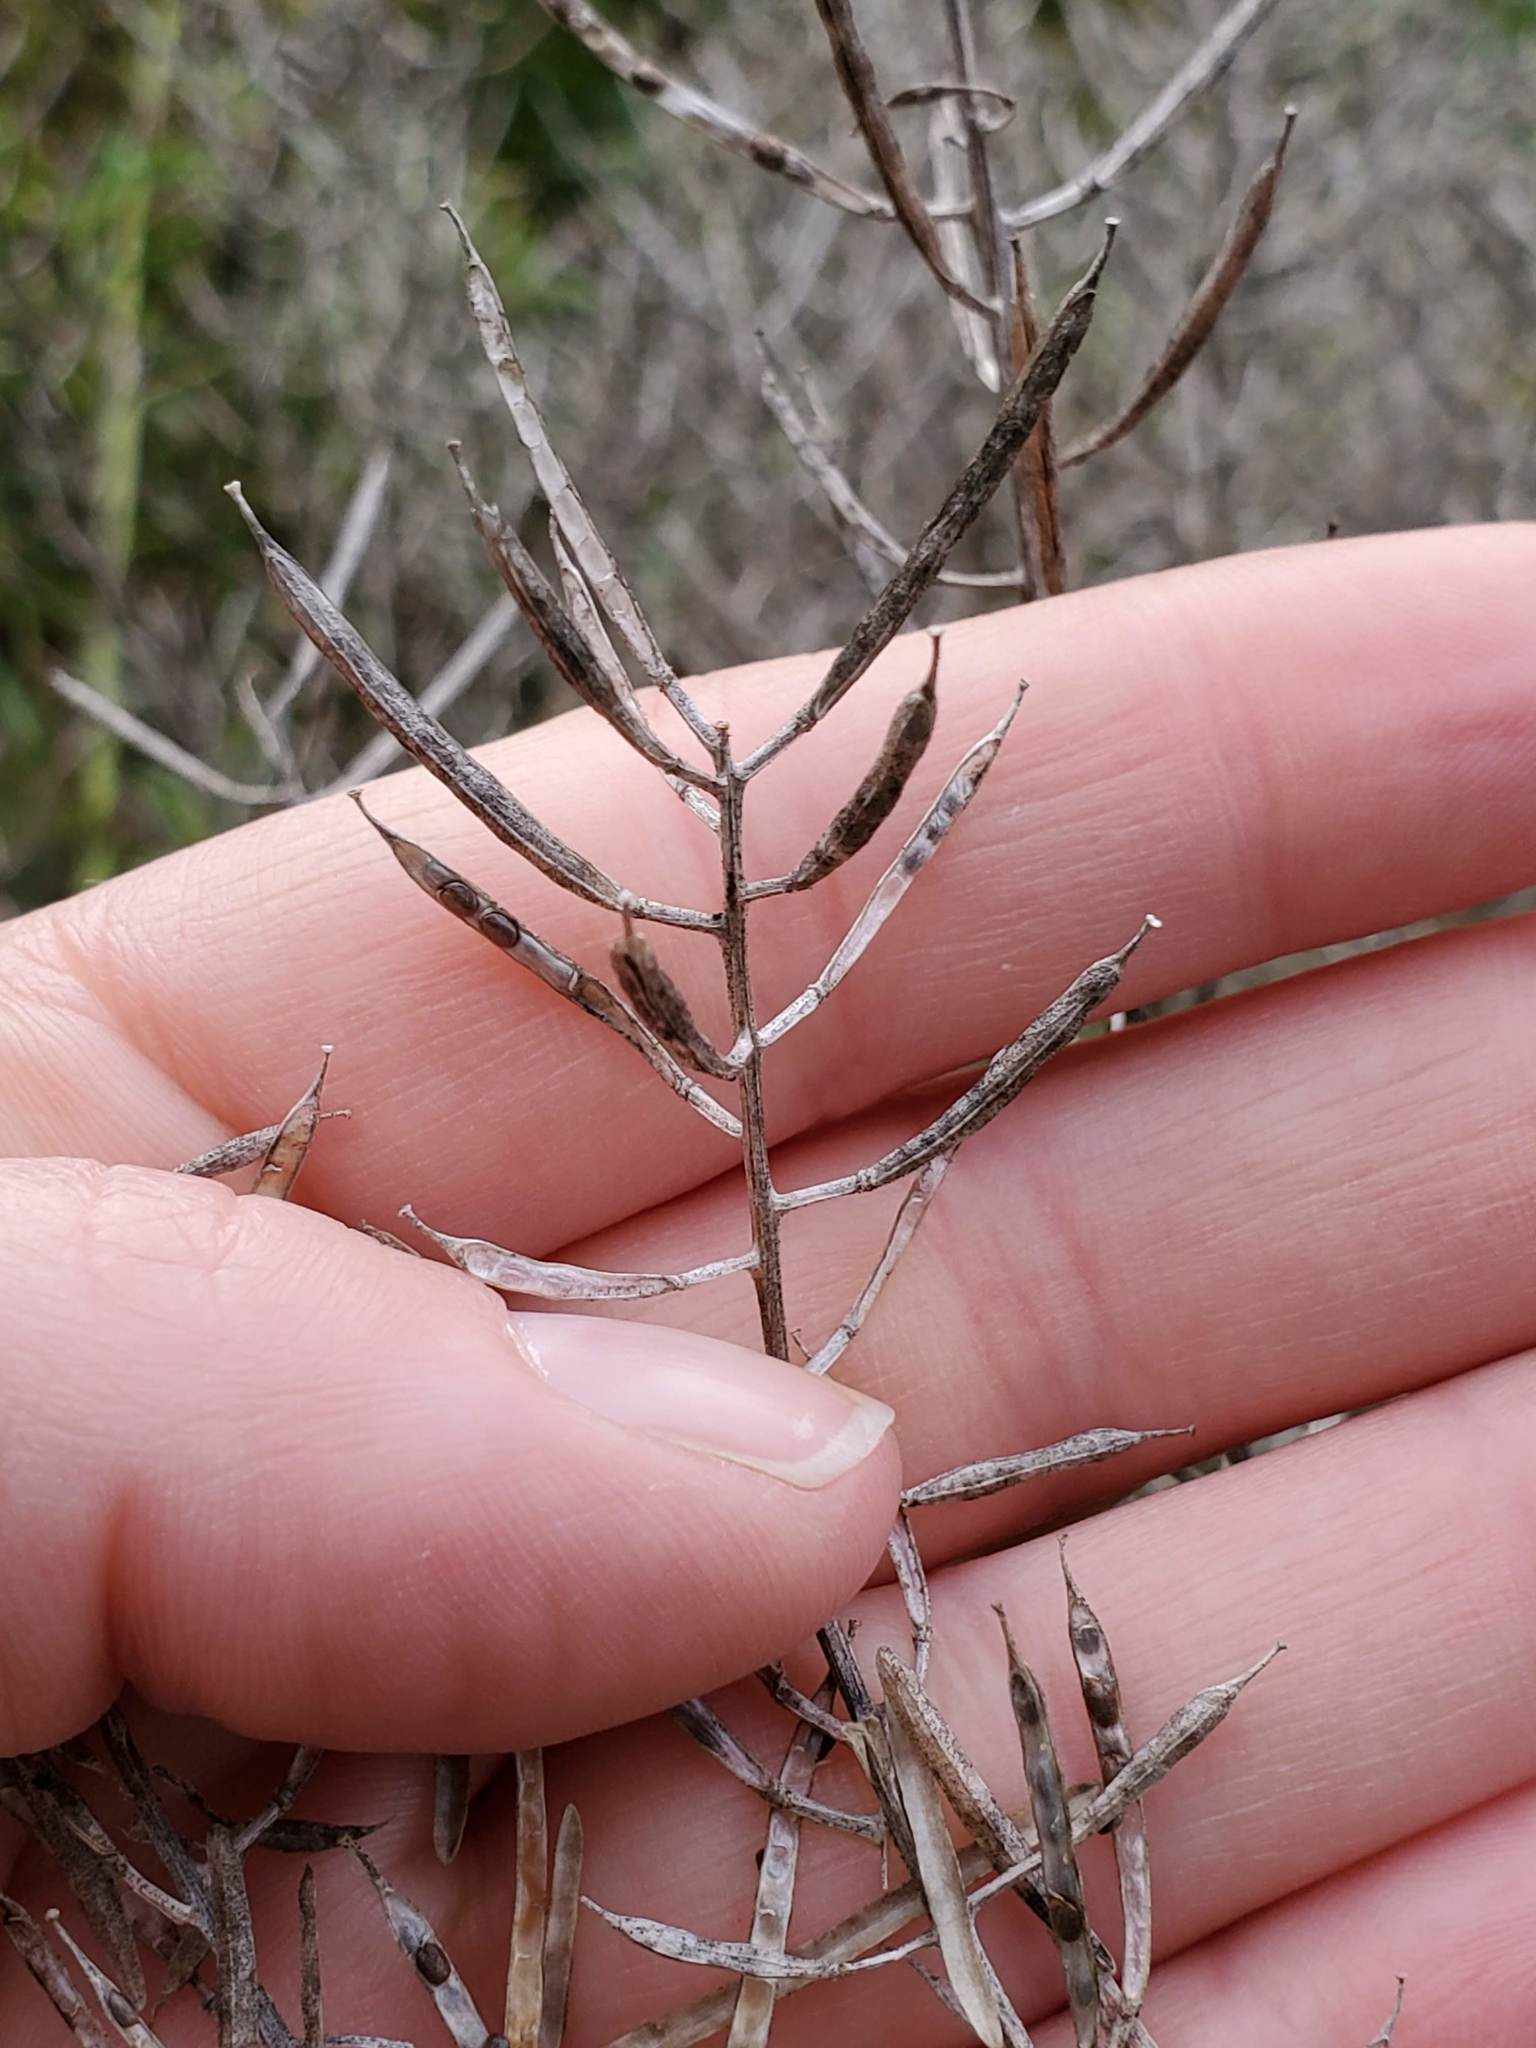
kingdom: Plantae
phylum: Tracheophyta
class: Magnoliopsida
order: Brassicales
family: Brassicaceae
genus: Barbarea
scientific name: Barbarea vulgaris
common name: Cressy-greens
